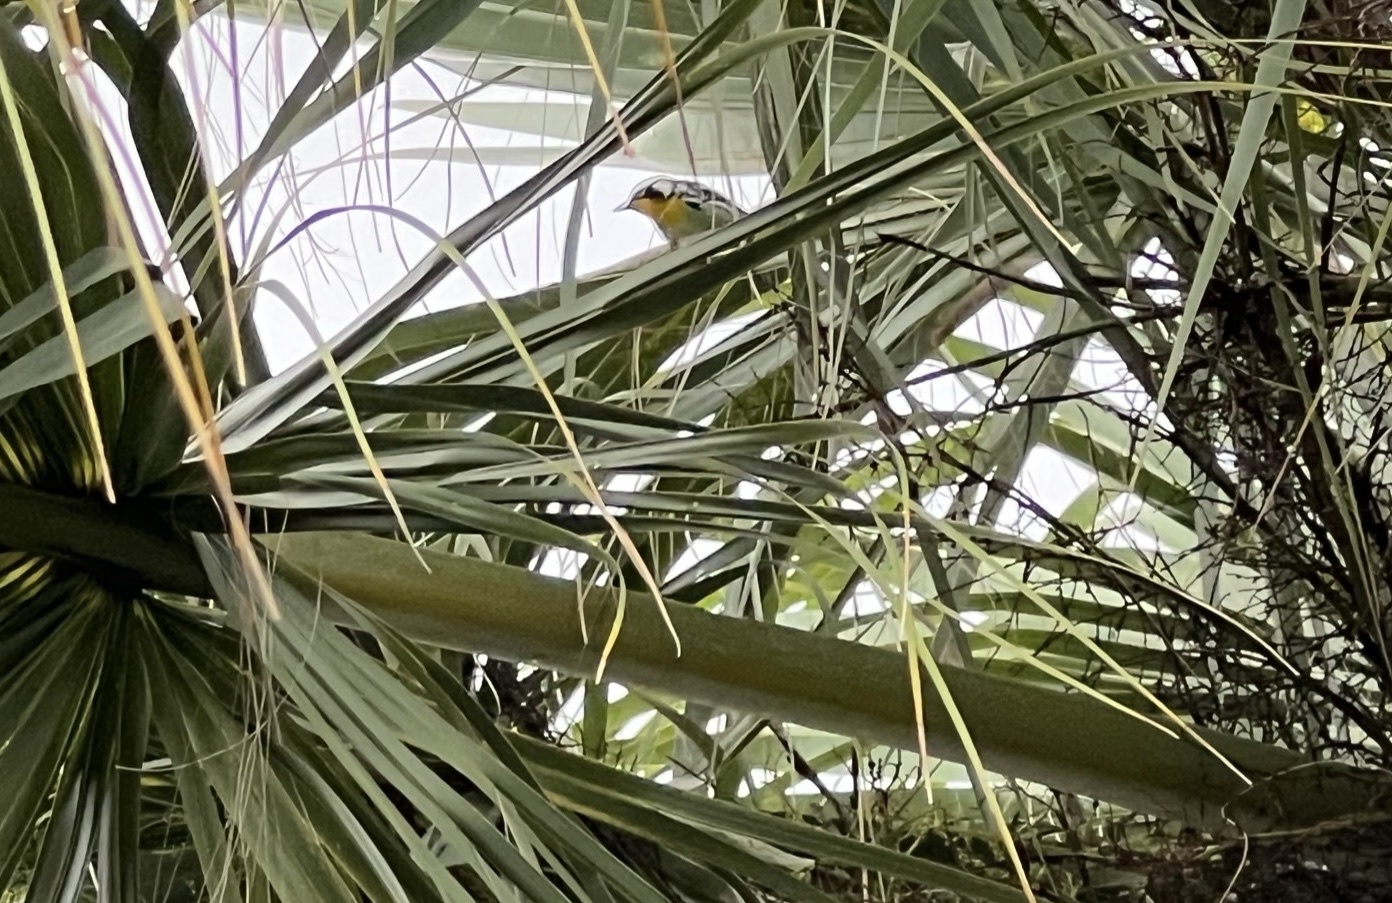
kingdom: Animalia
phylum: Chordata
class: Aves
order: Passeriformes
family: Parulidae
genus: Setophaga
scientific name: Setophaga dominica
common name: Yellow-throated warbler
